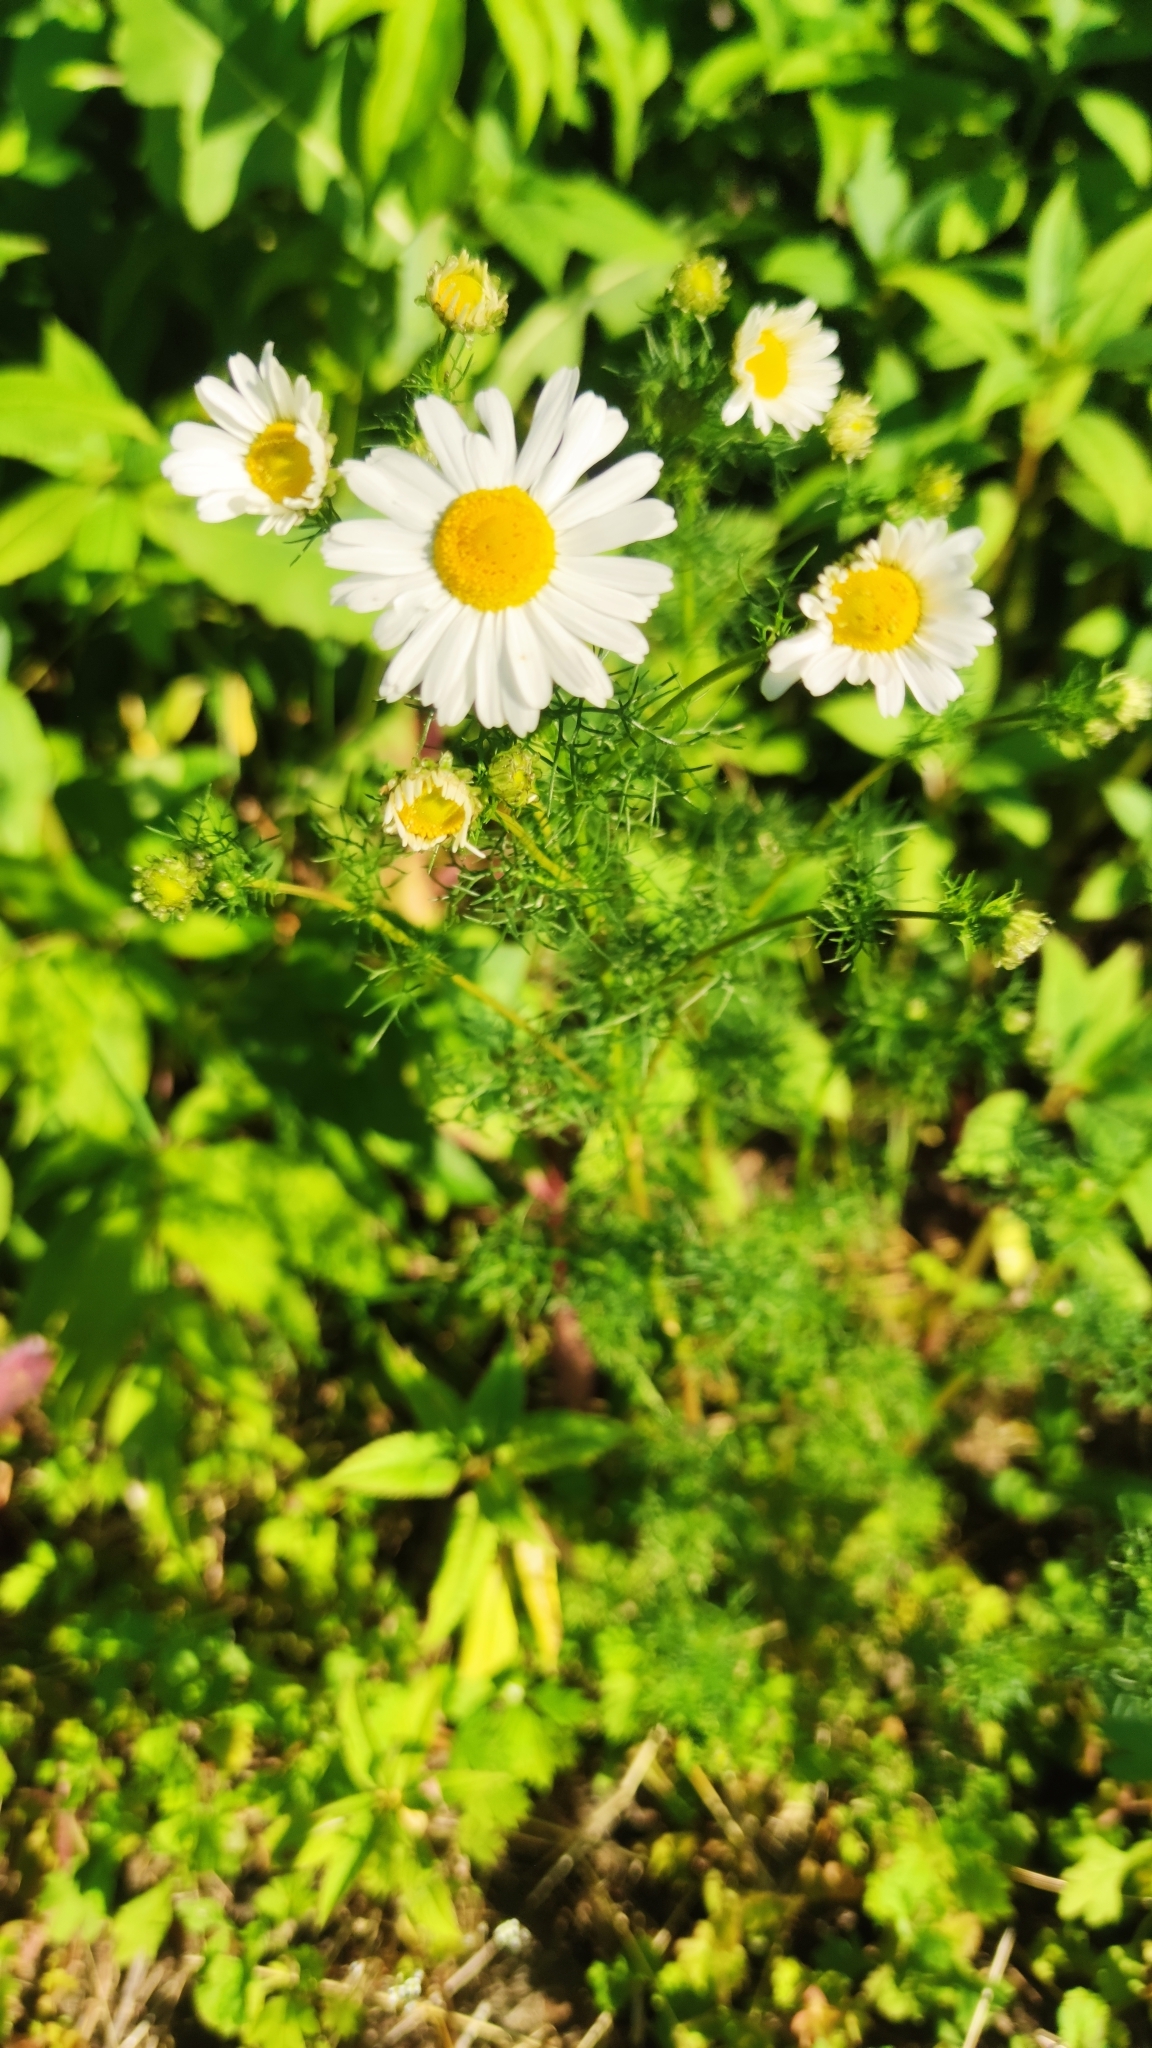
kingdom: Plantae
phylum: Tracheophyta
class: Magnoliopsida
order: Asterales
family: Asteraceae
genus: Tripleurospermum
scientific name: Tripleurospermum inodorum
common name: Scentless mayweed
